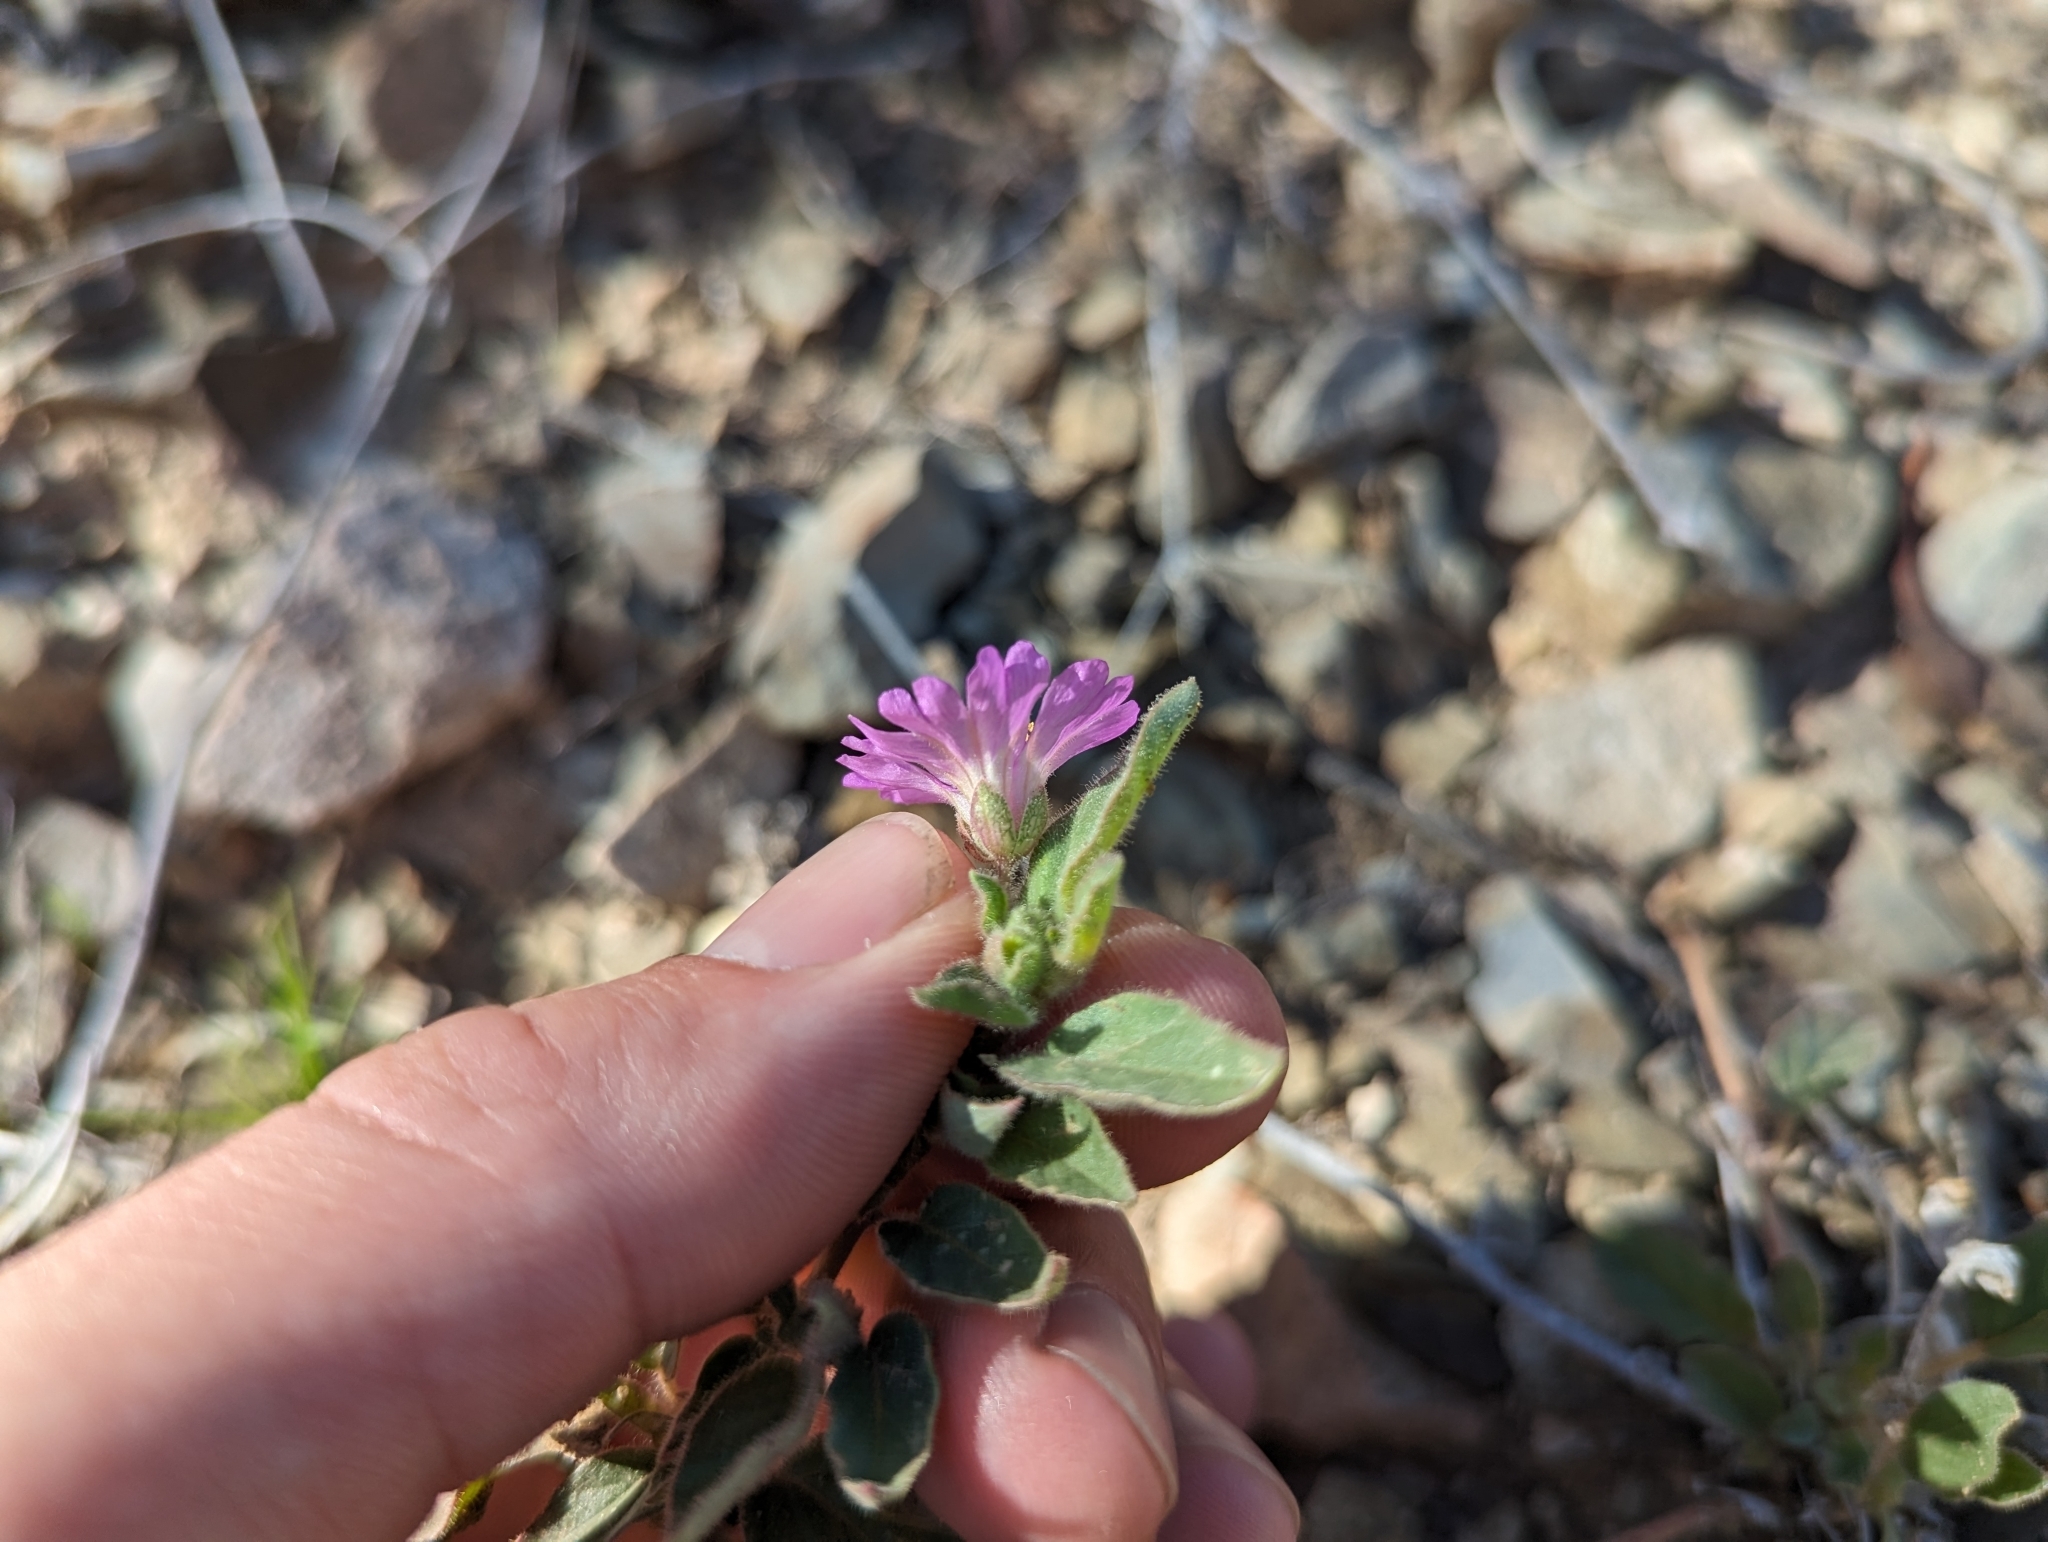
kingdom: Plantae
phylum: Tracheophyta
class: Magnoliopsida
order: Caryophyllales
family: Nyctaginaceae
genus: Allionia
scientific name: Allionia incarnata
